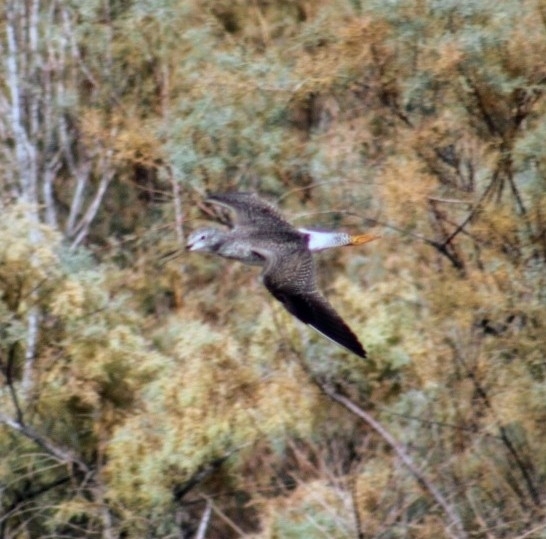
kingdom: Animalia
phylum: Chordata
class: Aves
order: Charadriiformes
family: Scolopacidae
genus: Tringa
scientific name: Tringa melanoleuca
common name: Greater yellowlegs
